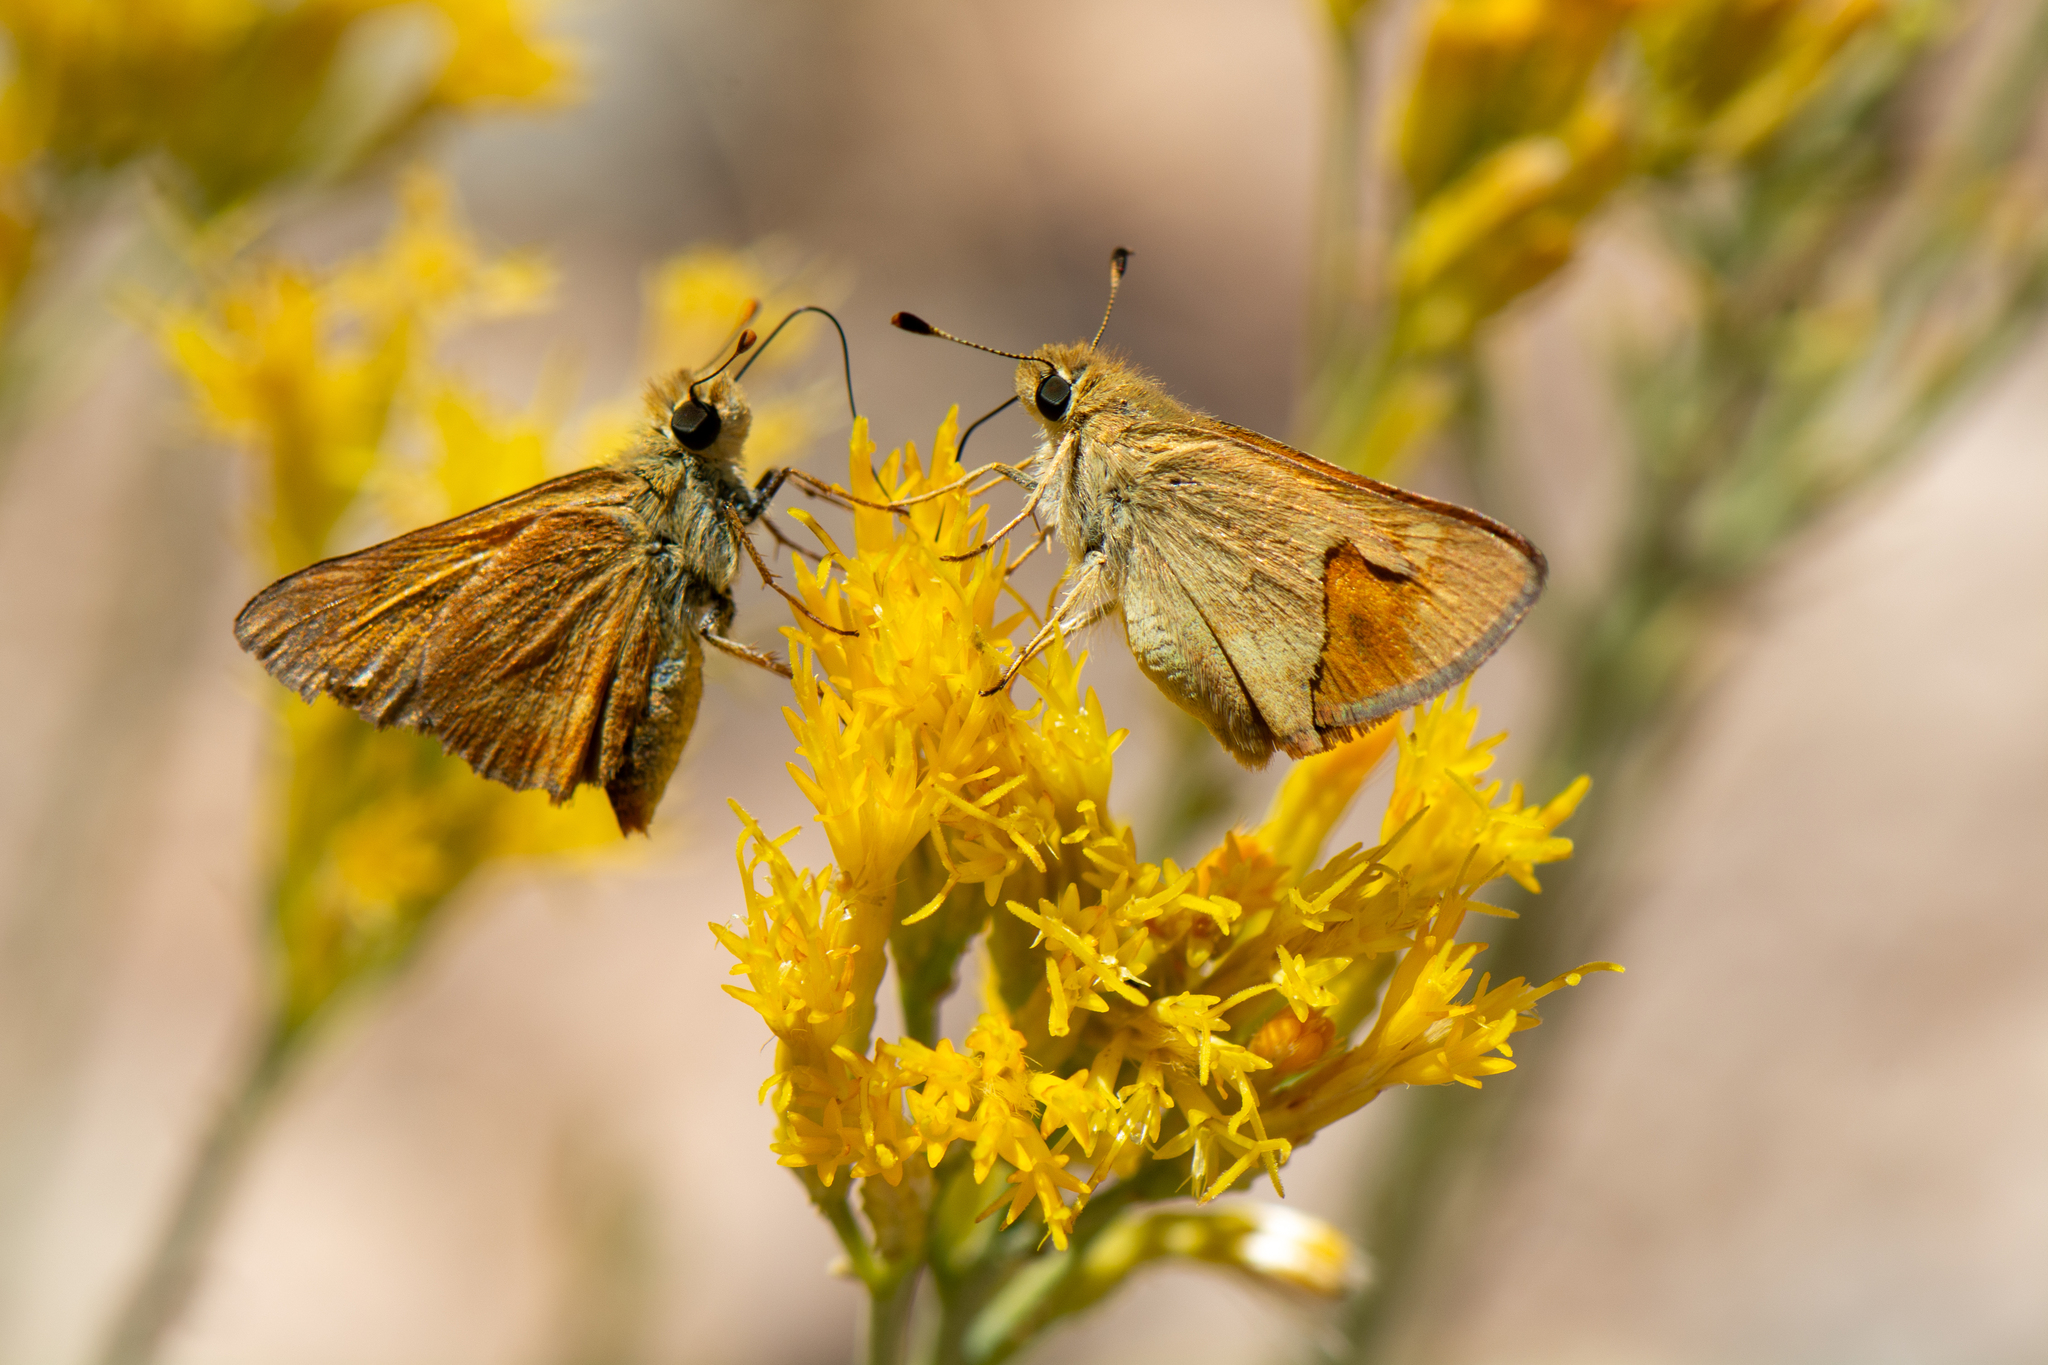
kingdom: Animalia
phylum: Arthropoda
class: Insecta
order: Lepidoptera
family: Hesperiidae
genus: Ochlodes
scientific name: Ochlodes sylvanoides
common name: Woodland skipper
